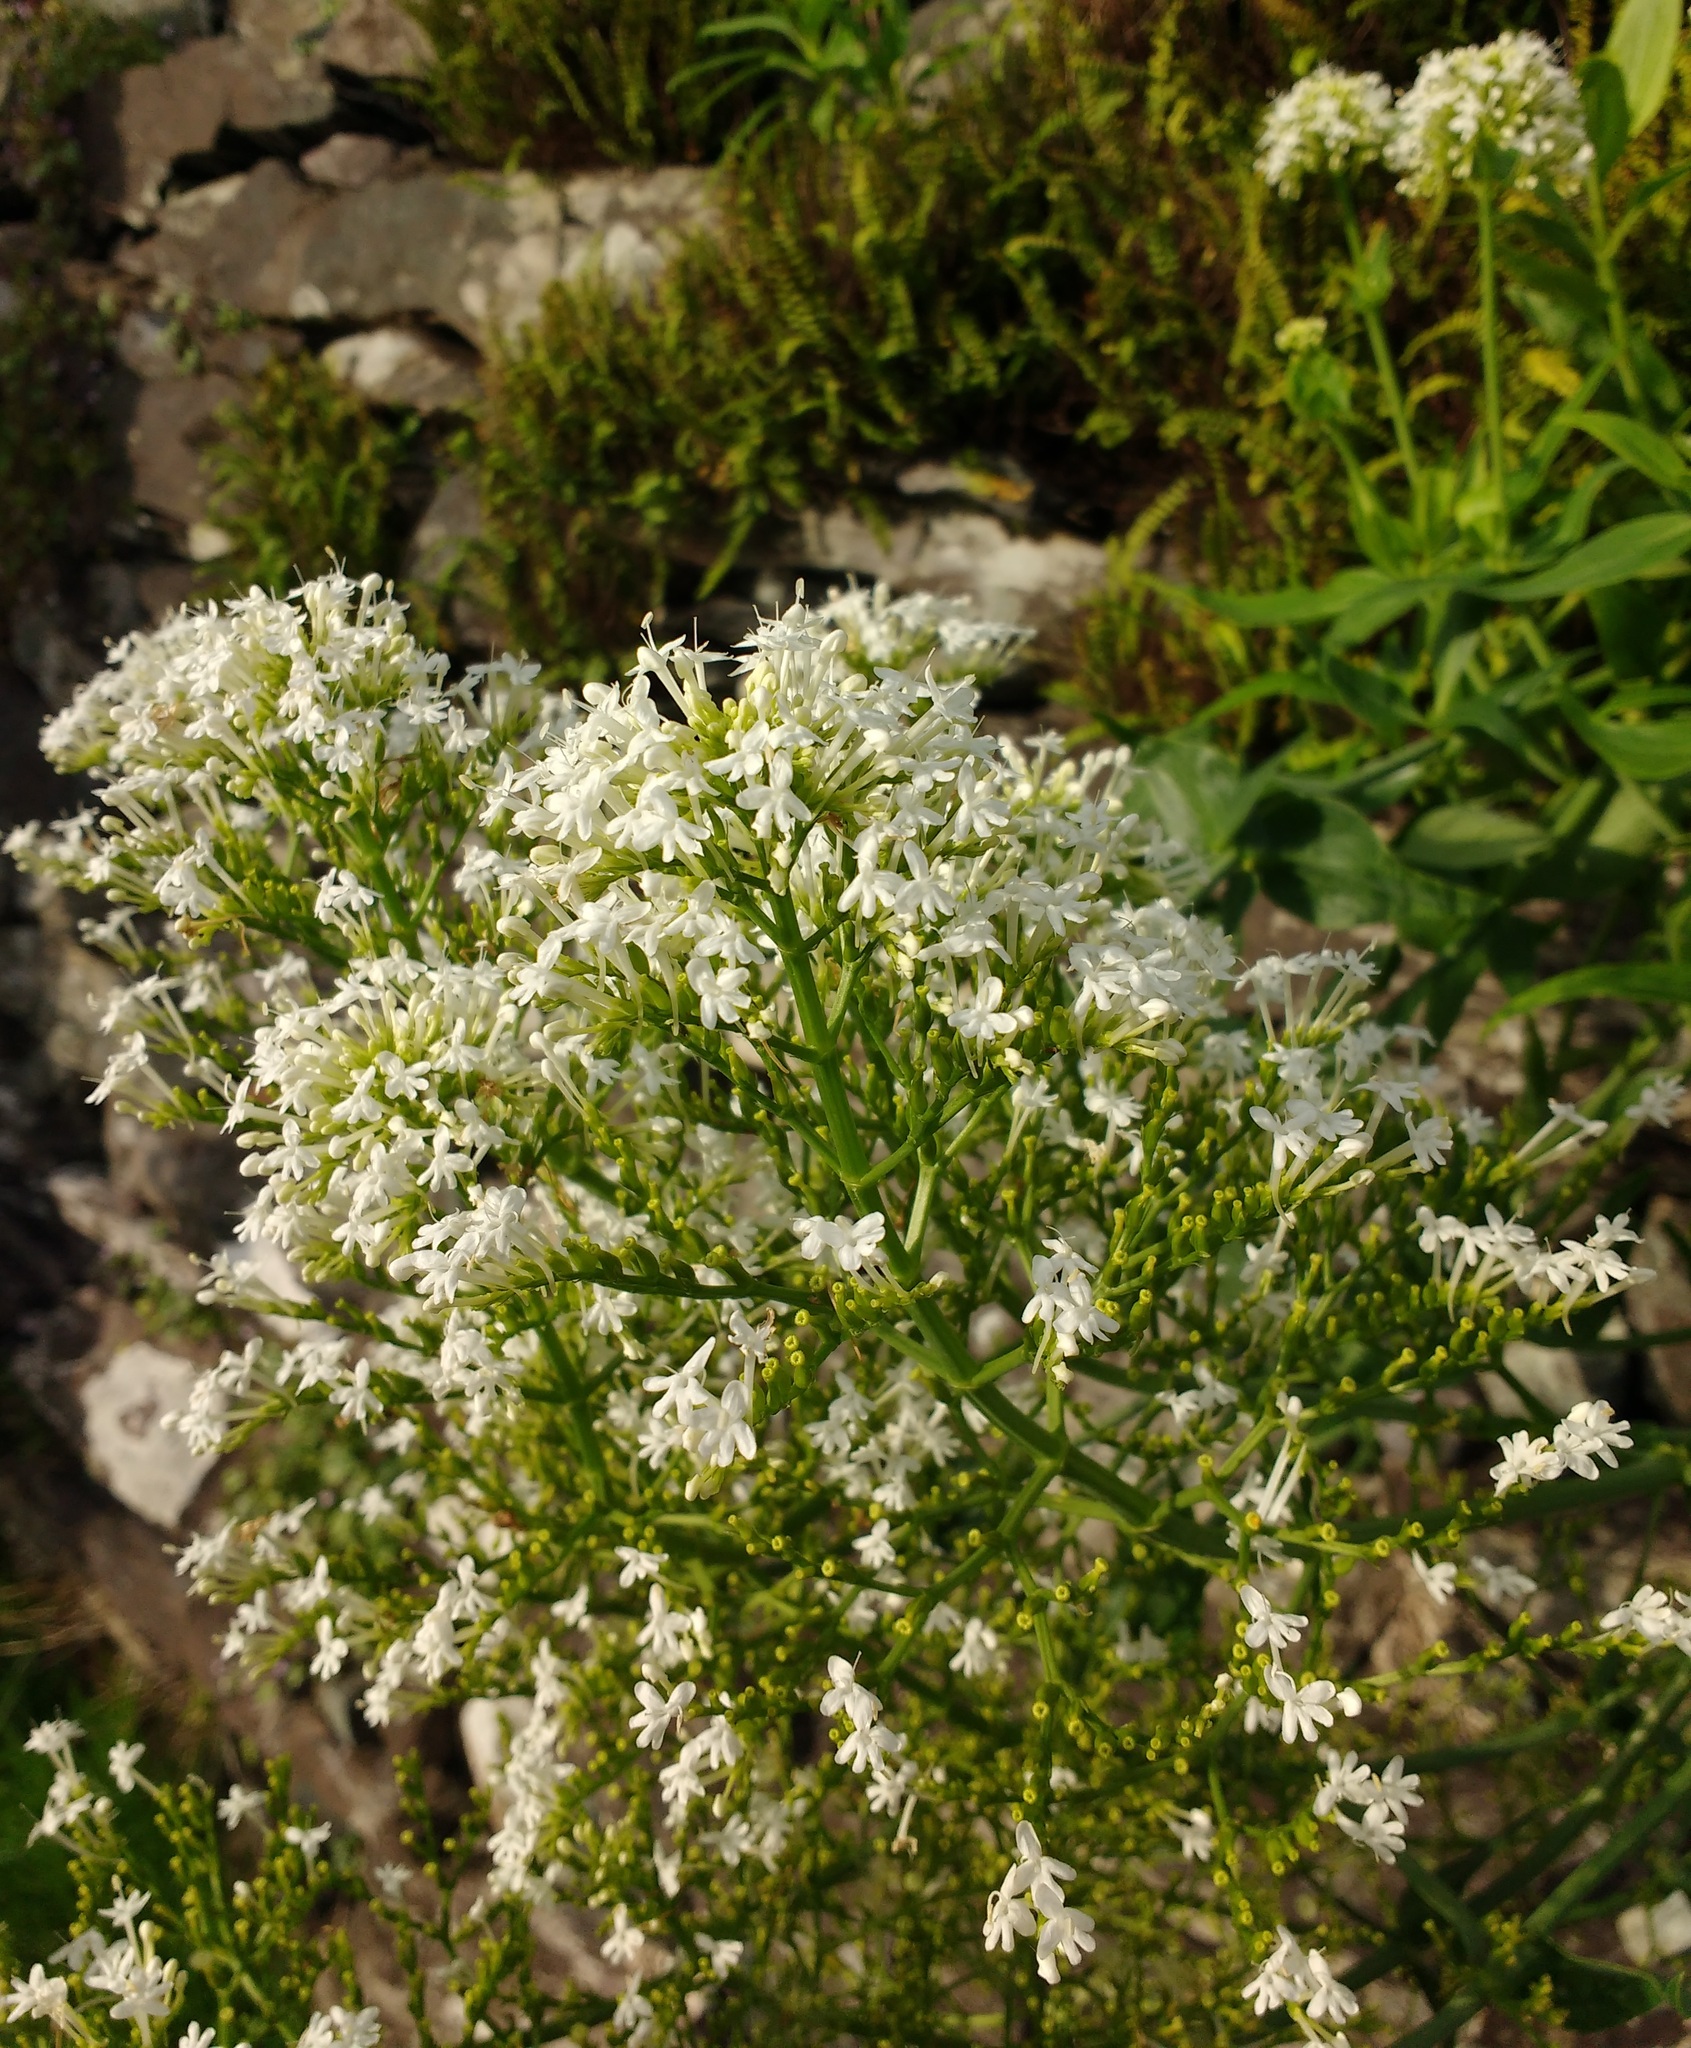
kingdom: Plantae
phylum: Tracheophyta
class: Magnoliopsida
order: Dipsacales
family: Caprifoliaceae
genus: Centranthus
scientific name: Centranthus ruber
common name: Red valerian
